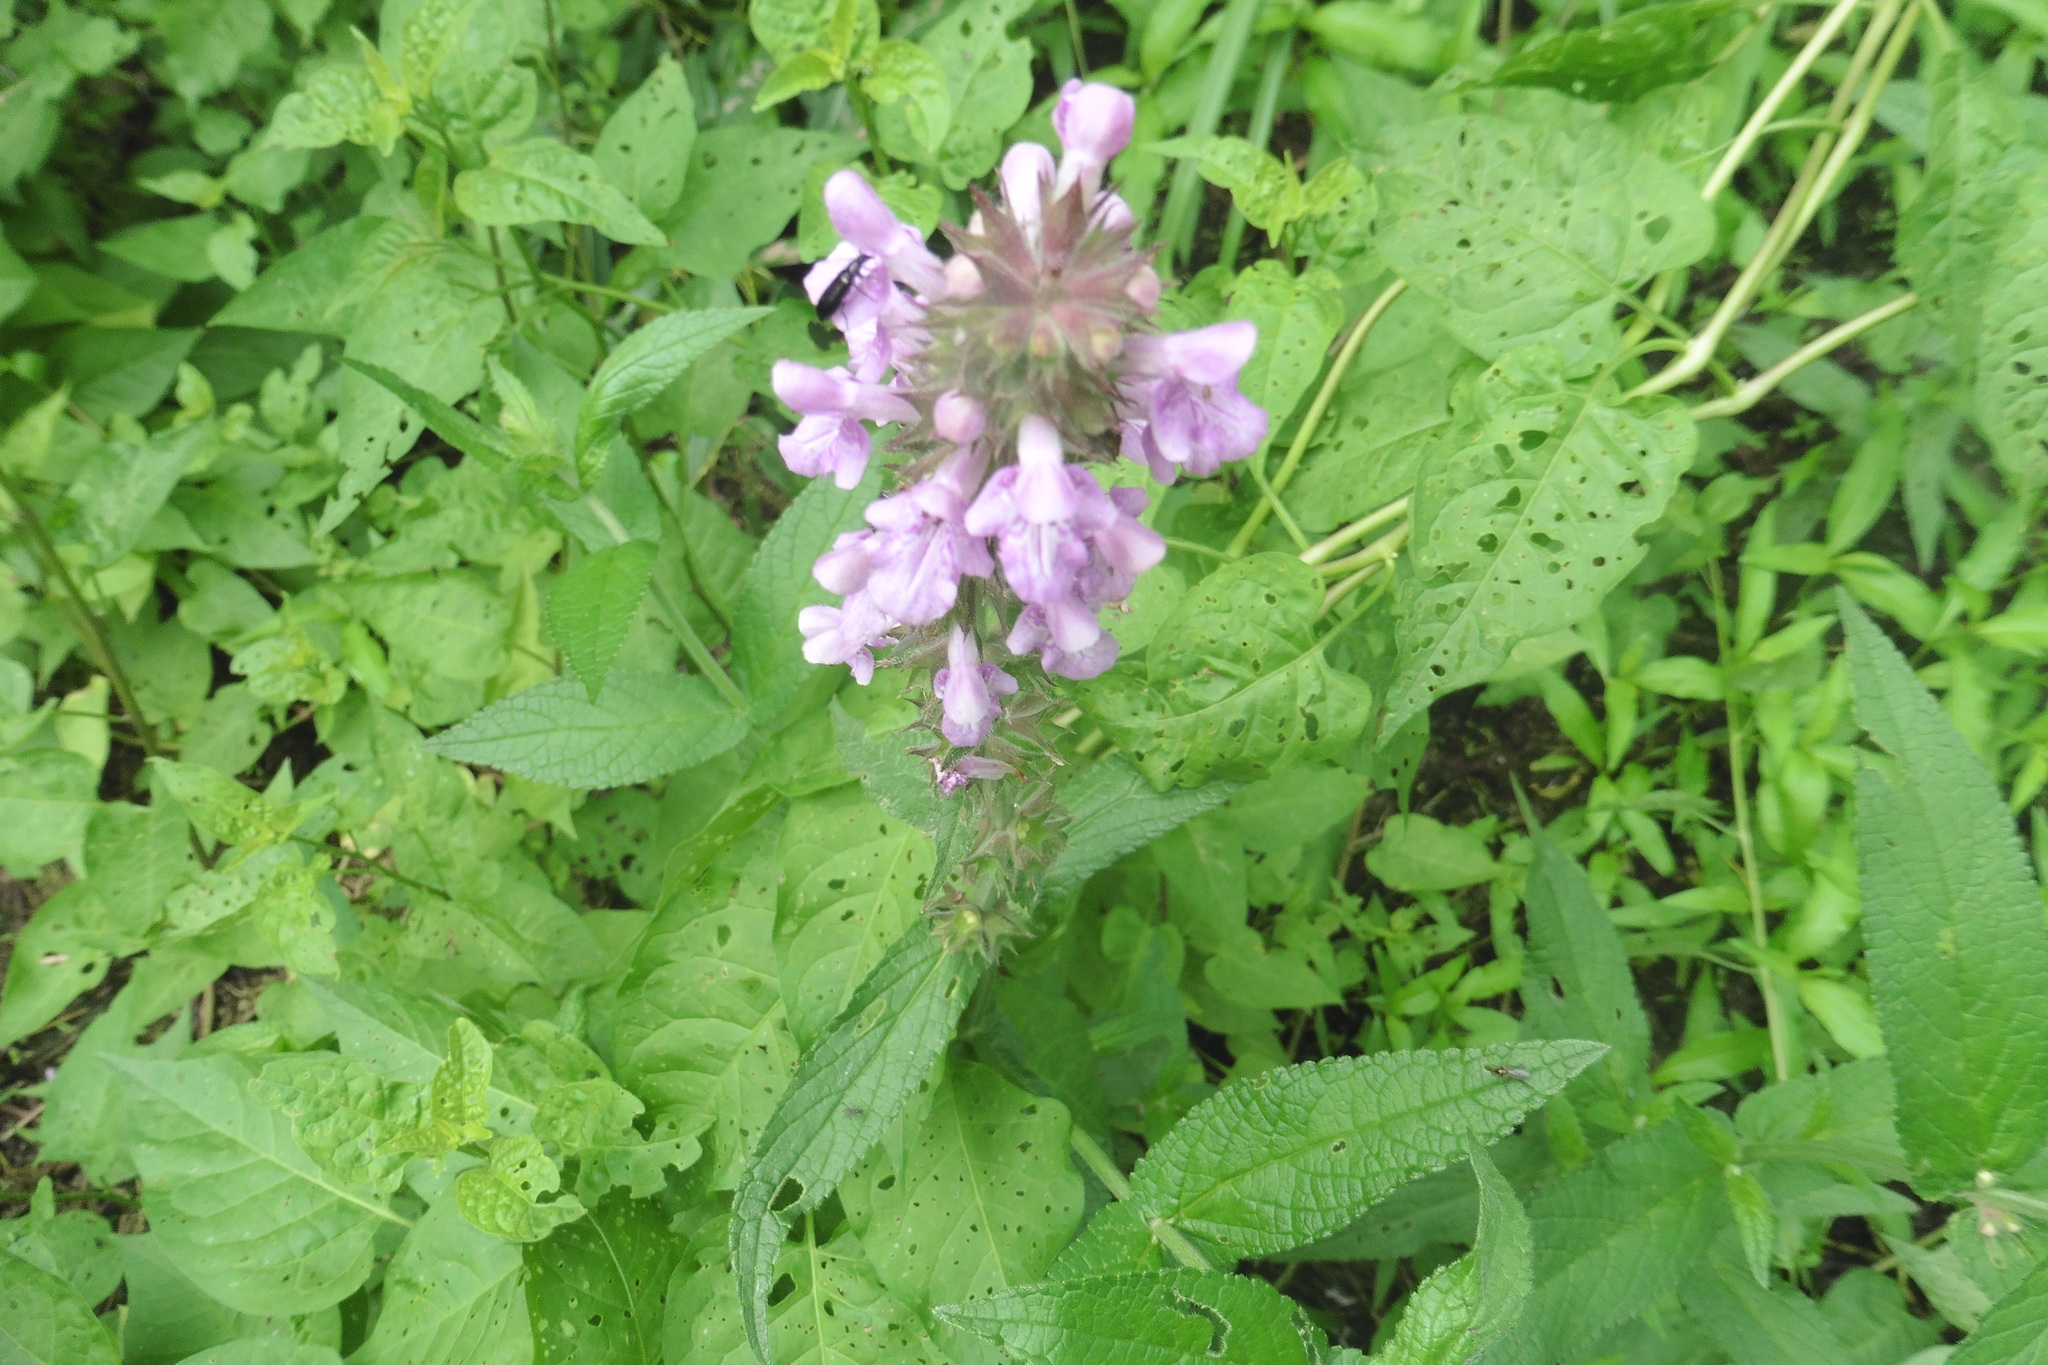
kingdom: Plantae
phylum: Tracheophyta
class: Magnoliopsida
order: Lamiales
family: Lamiaceae
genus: Stachys
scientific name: Stachys palustris
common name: Marsh woundwort
